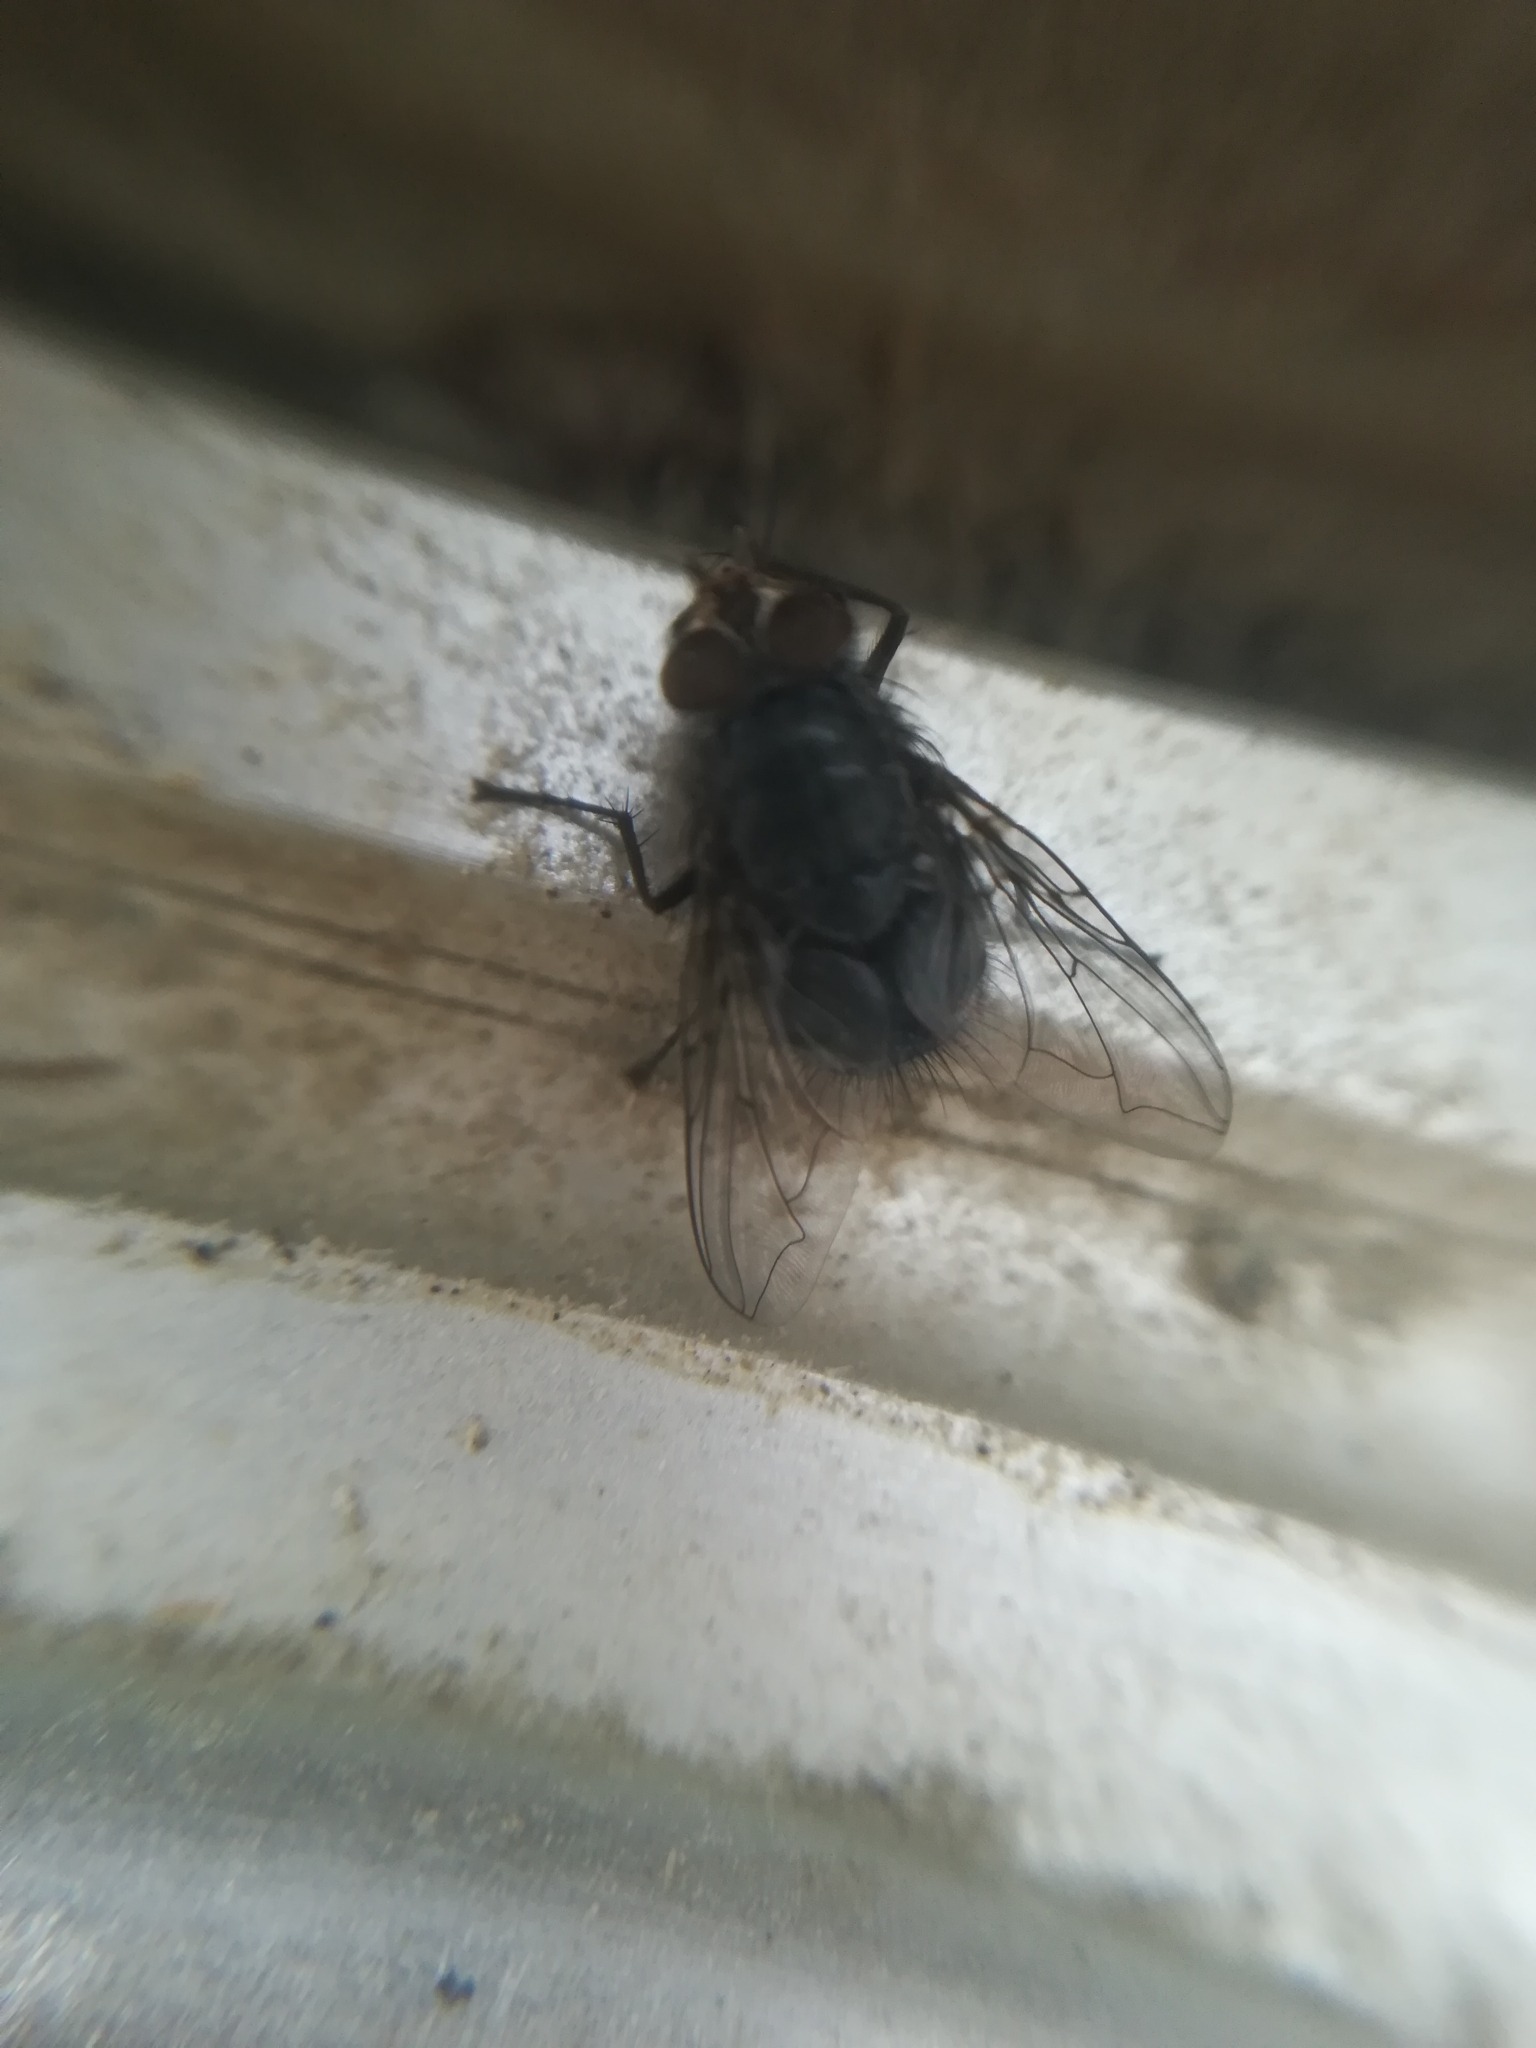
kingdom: Animalia
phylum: Arthropoda
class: Insecta
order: Diptera
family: Calliphoridae
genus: Calliphora
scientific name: Calliphora vicina
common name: Common blow flie
